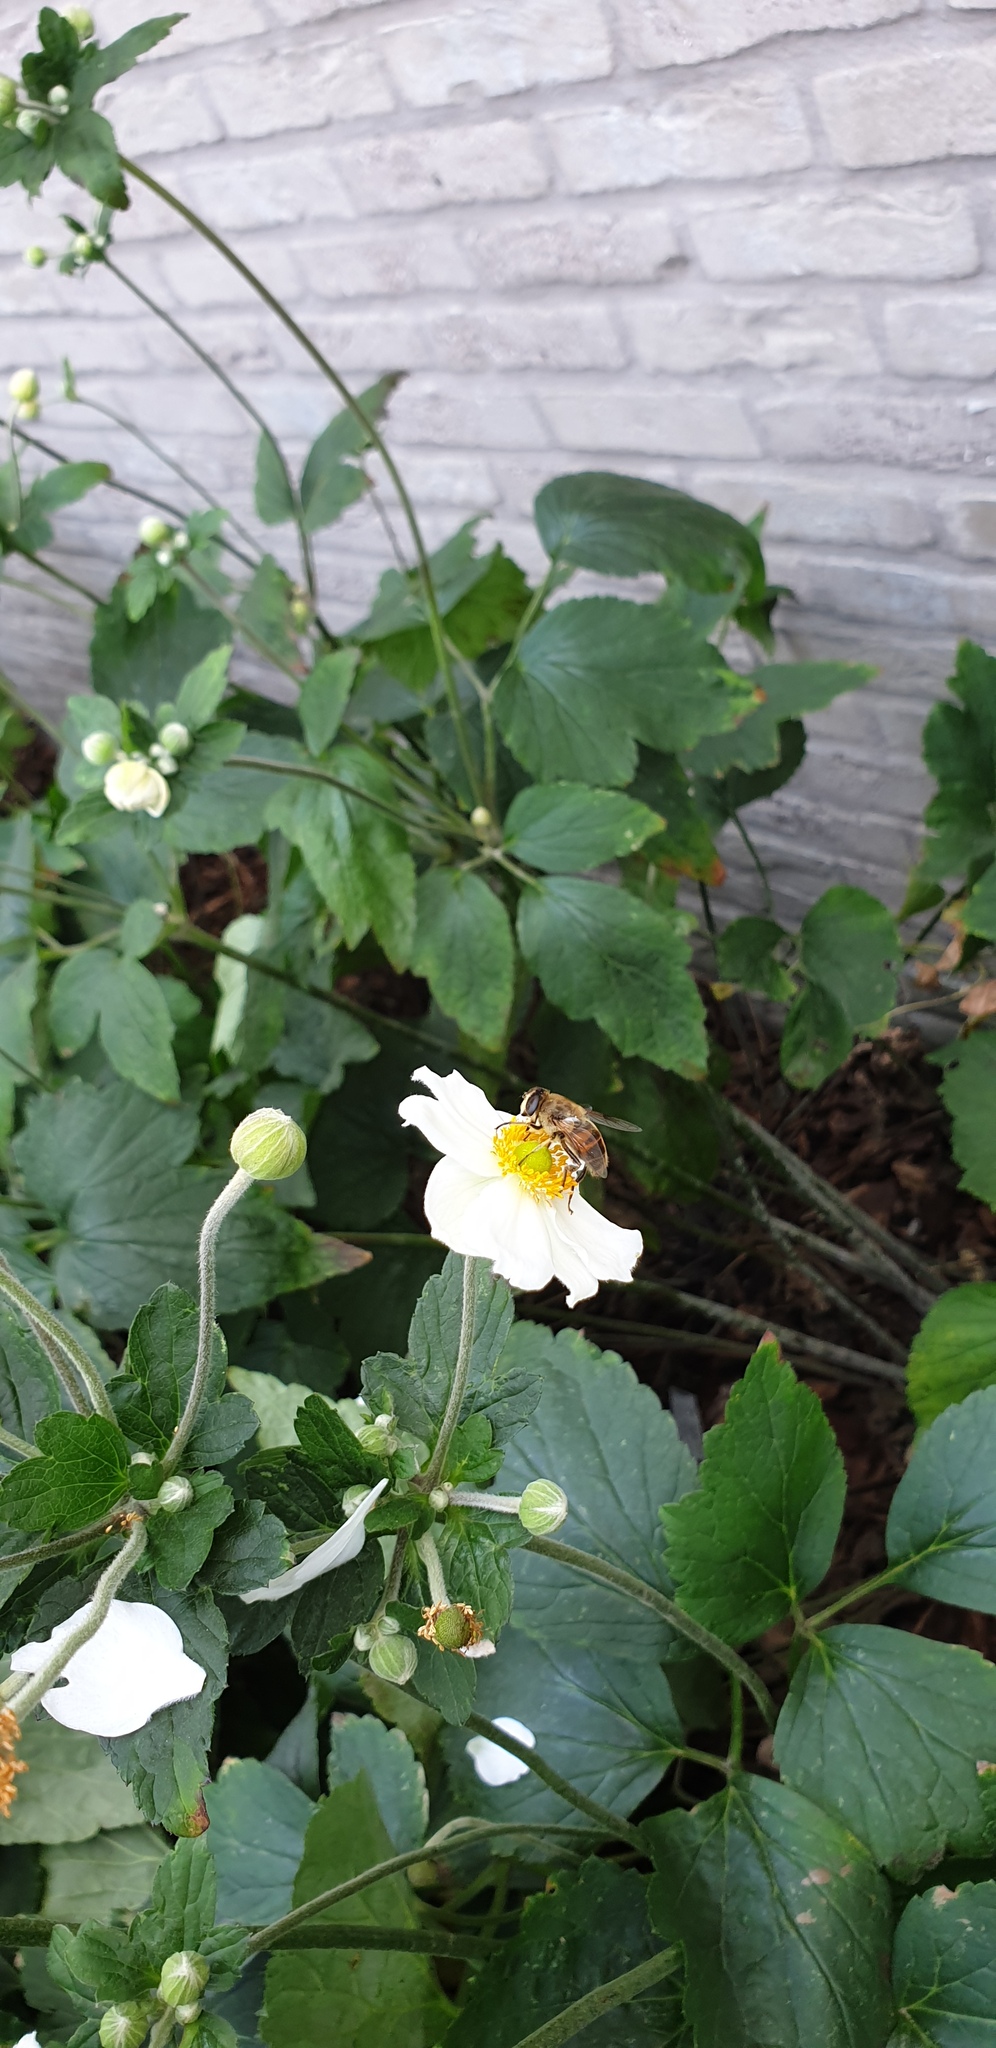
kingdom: Animalia
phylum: Arthropoda
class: Insecta
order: Diptera
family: Syrphidae
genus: Eristalis
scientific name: Eristalis tenax
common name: Drone fly
